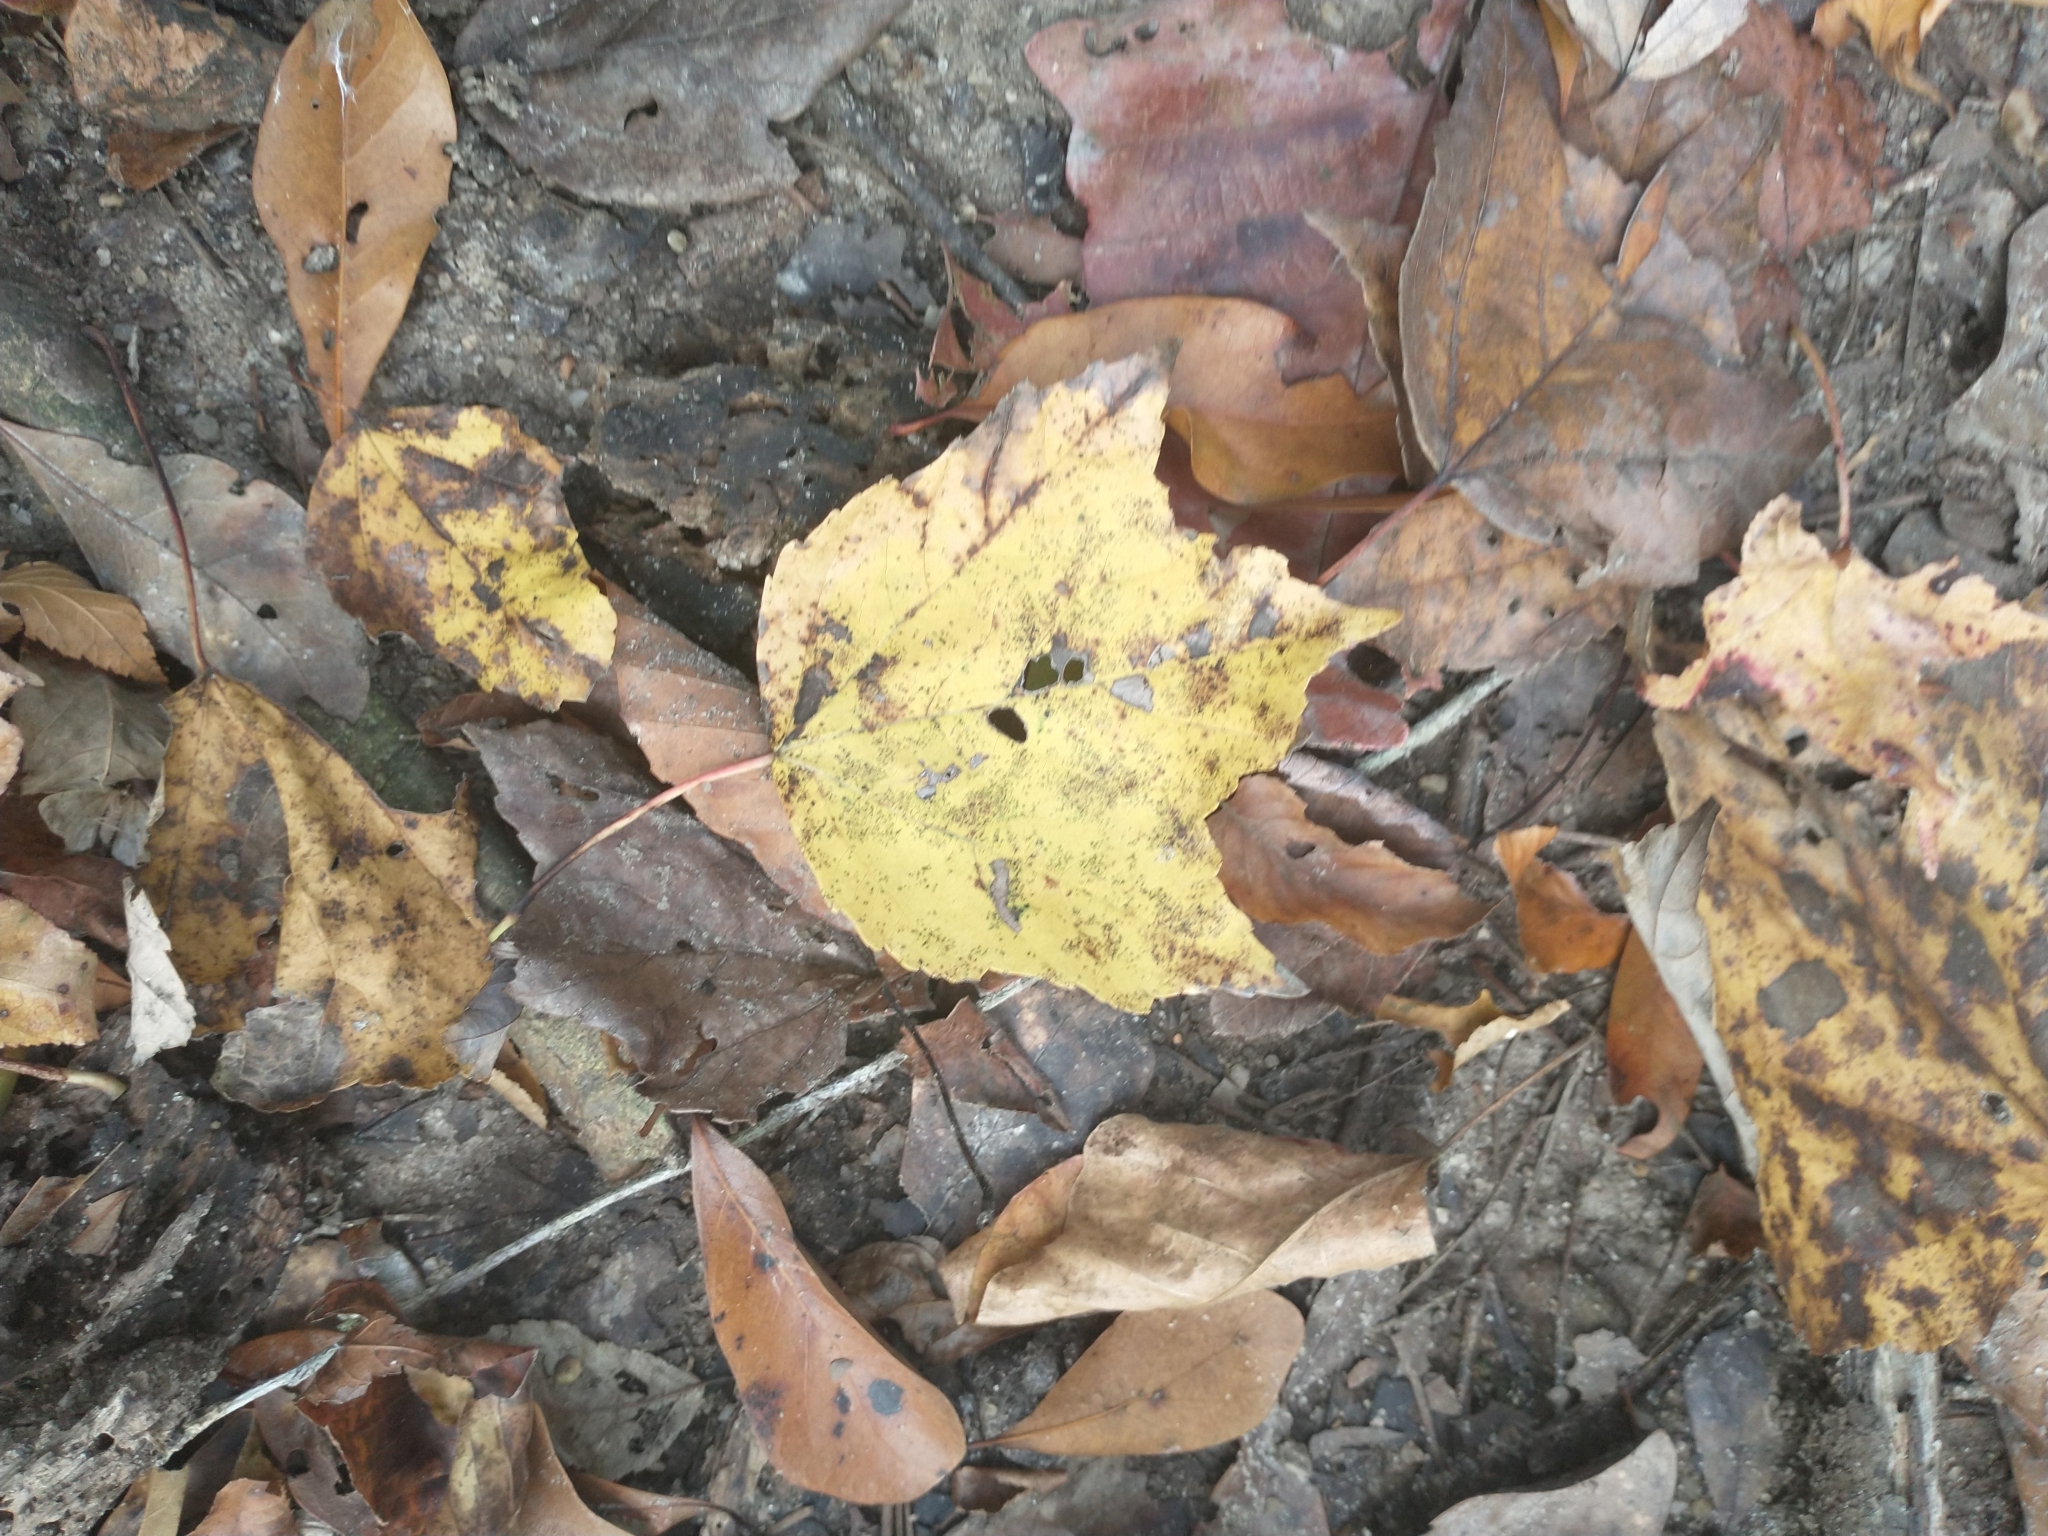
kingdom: Plantae
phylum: Tracheophyta
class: Magnoliopsida
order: Sapindales
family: Sapindaceae
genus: Acer
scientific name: Acer rubrum
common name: Red maple
